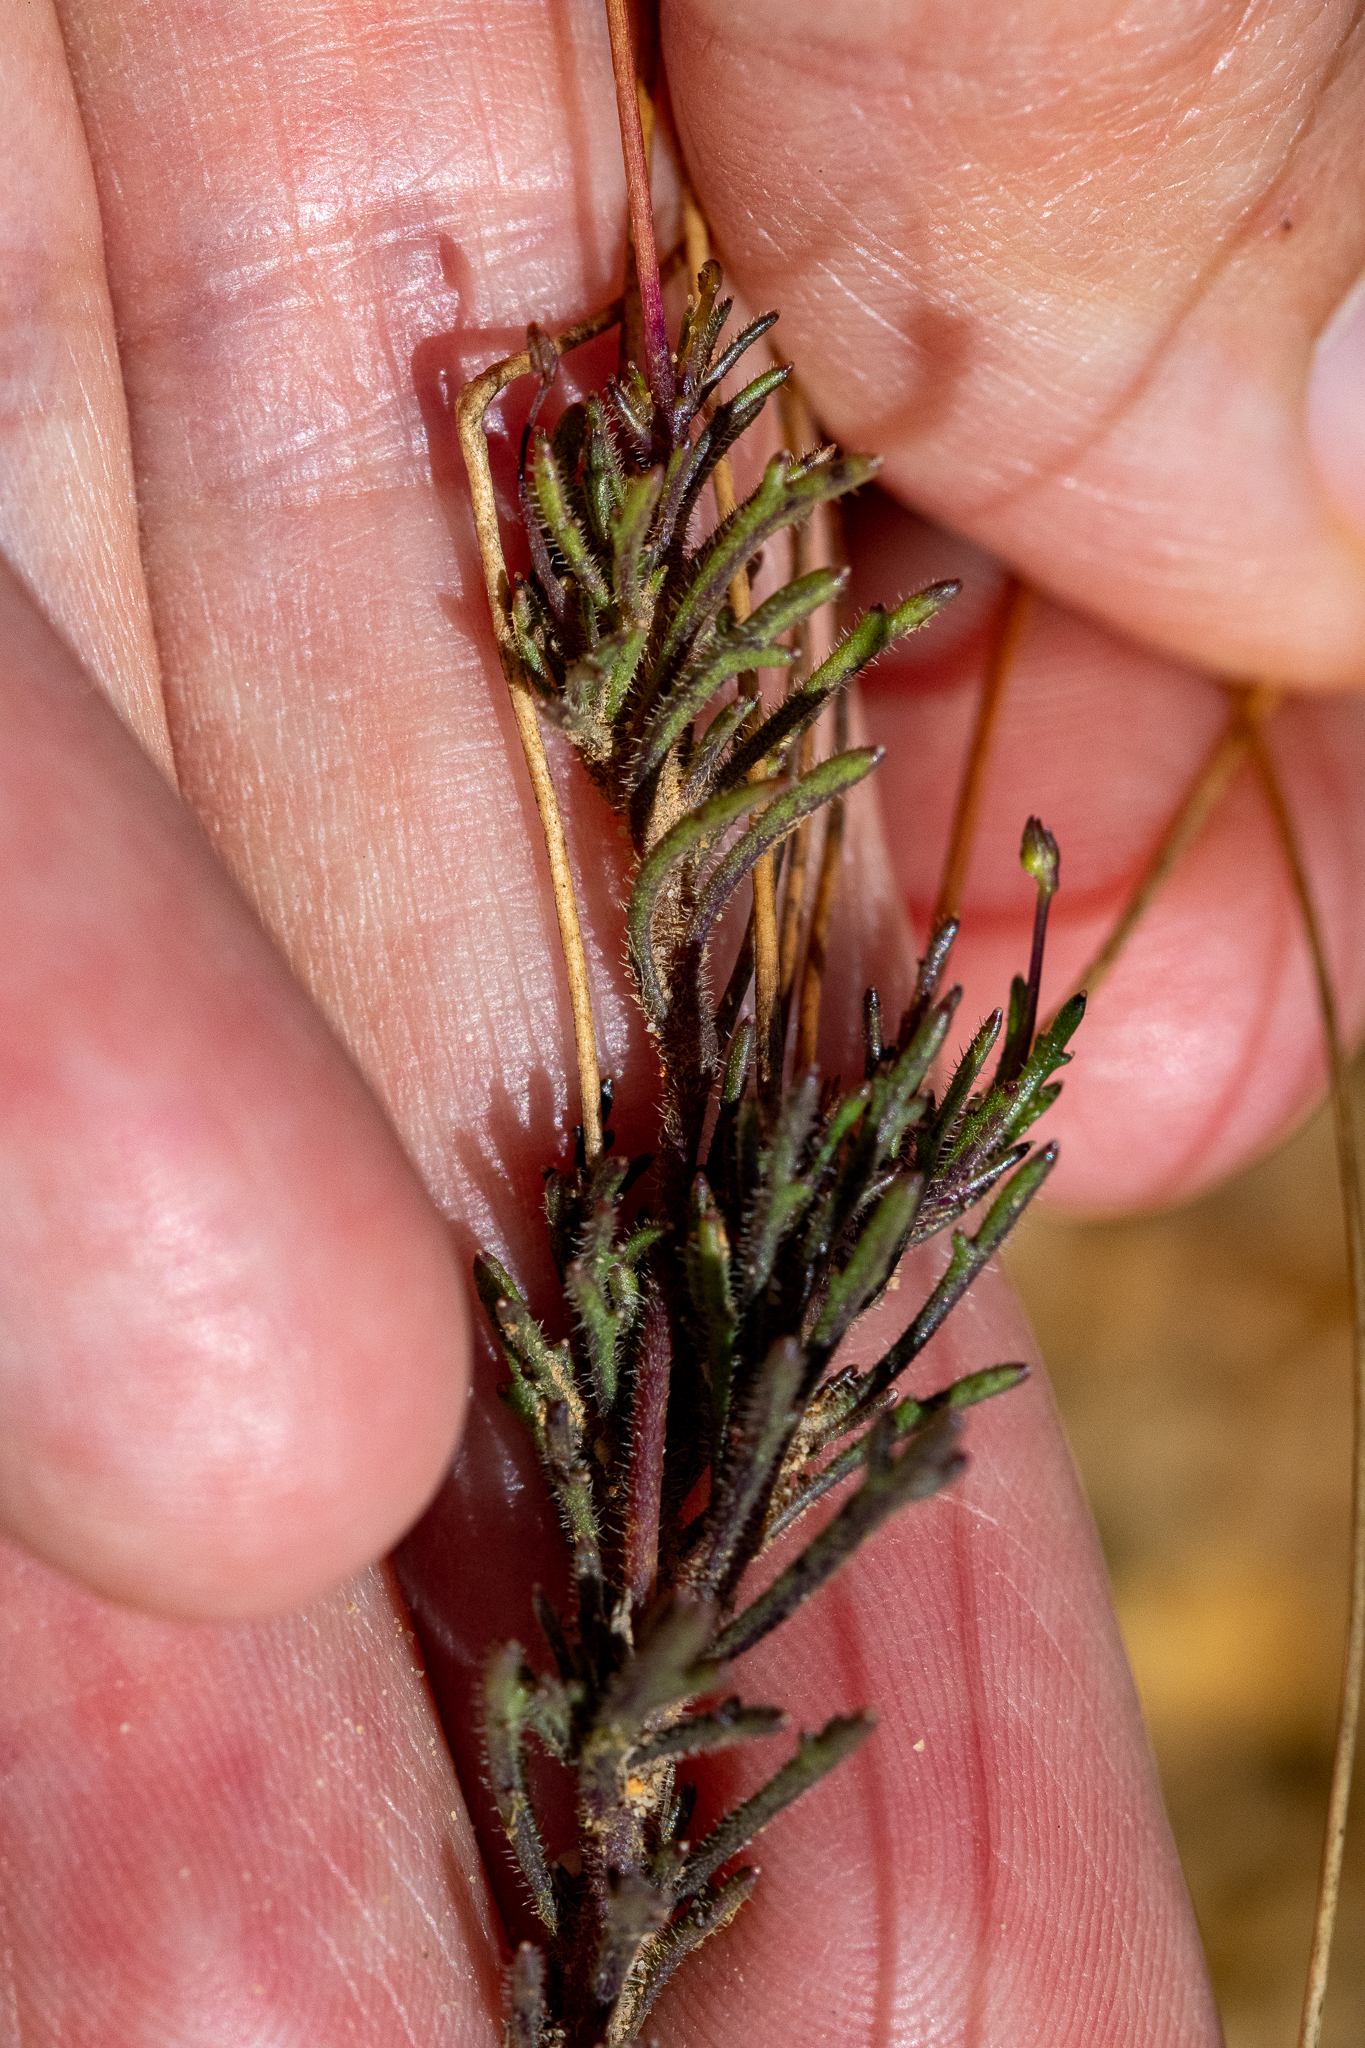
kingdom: Plantae
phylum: Tracheophyta
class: Magnoliopsida
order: Asterales
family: Campanulaceae
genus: Lobelia
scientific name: Lobelia chamaepitys
